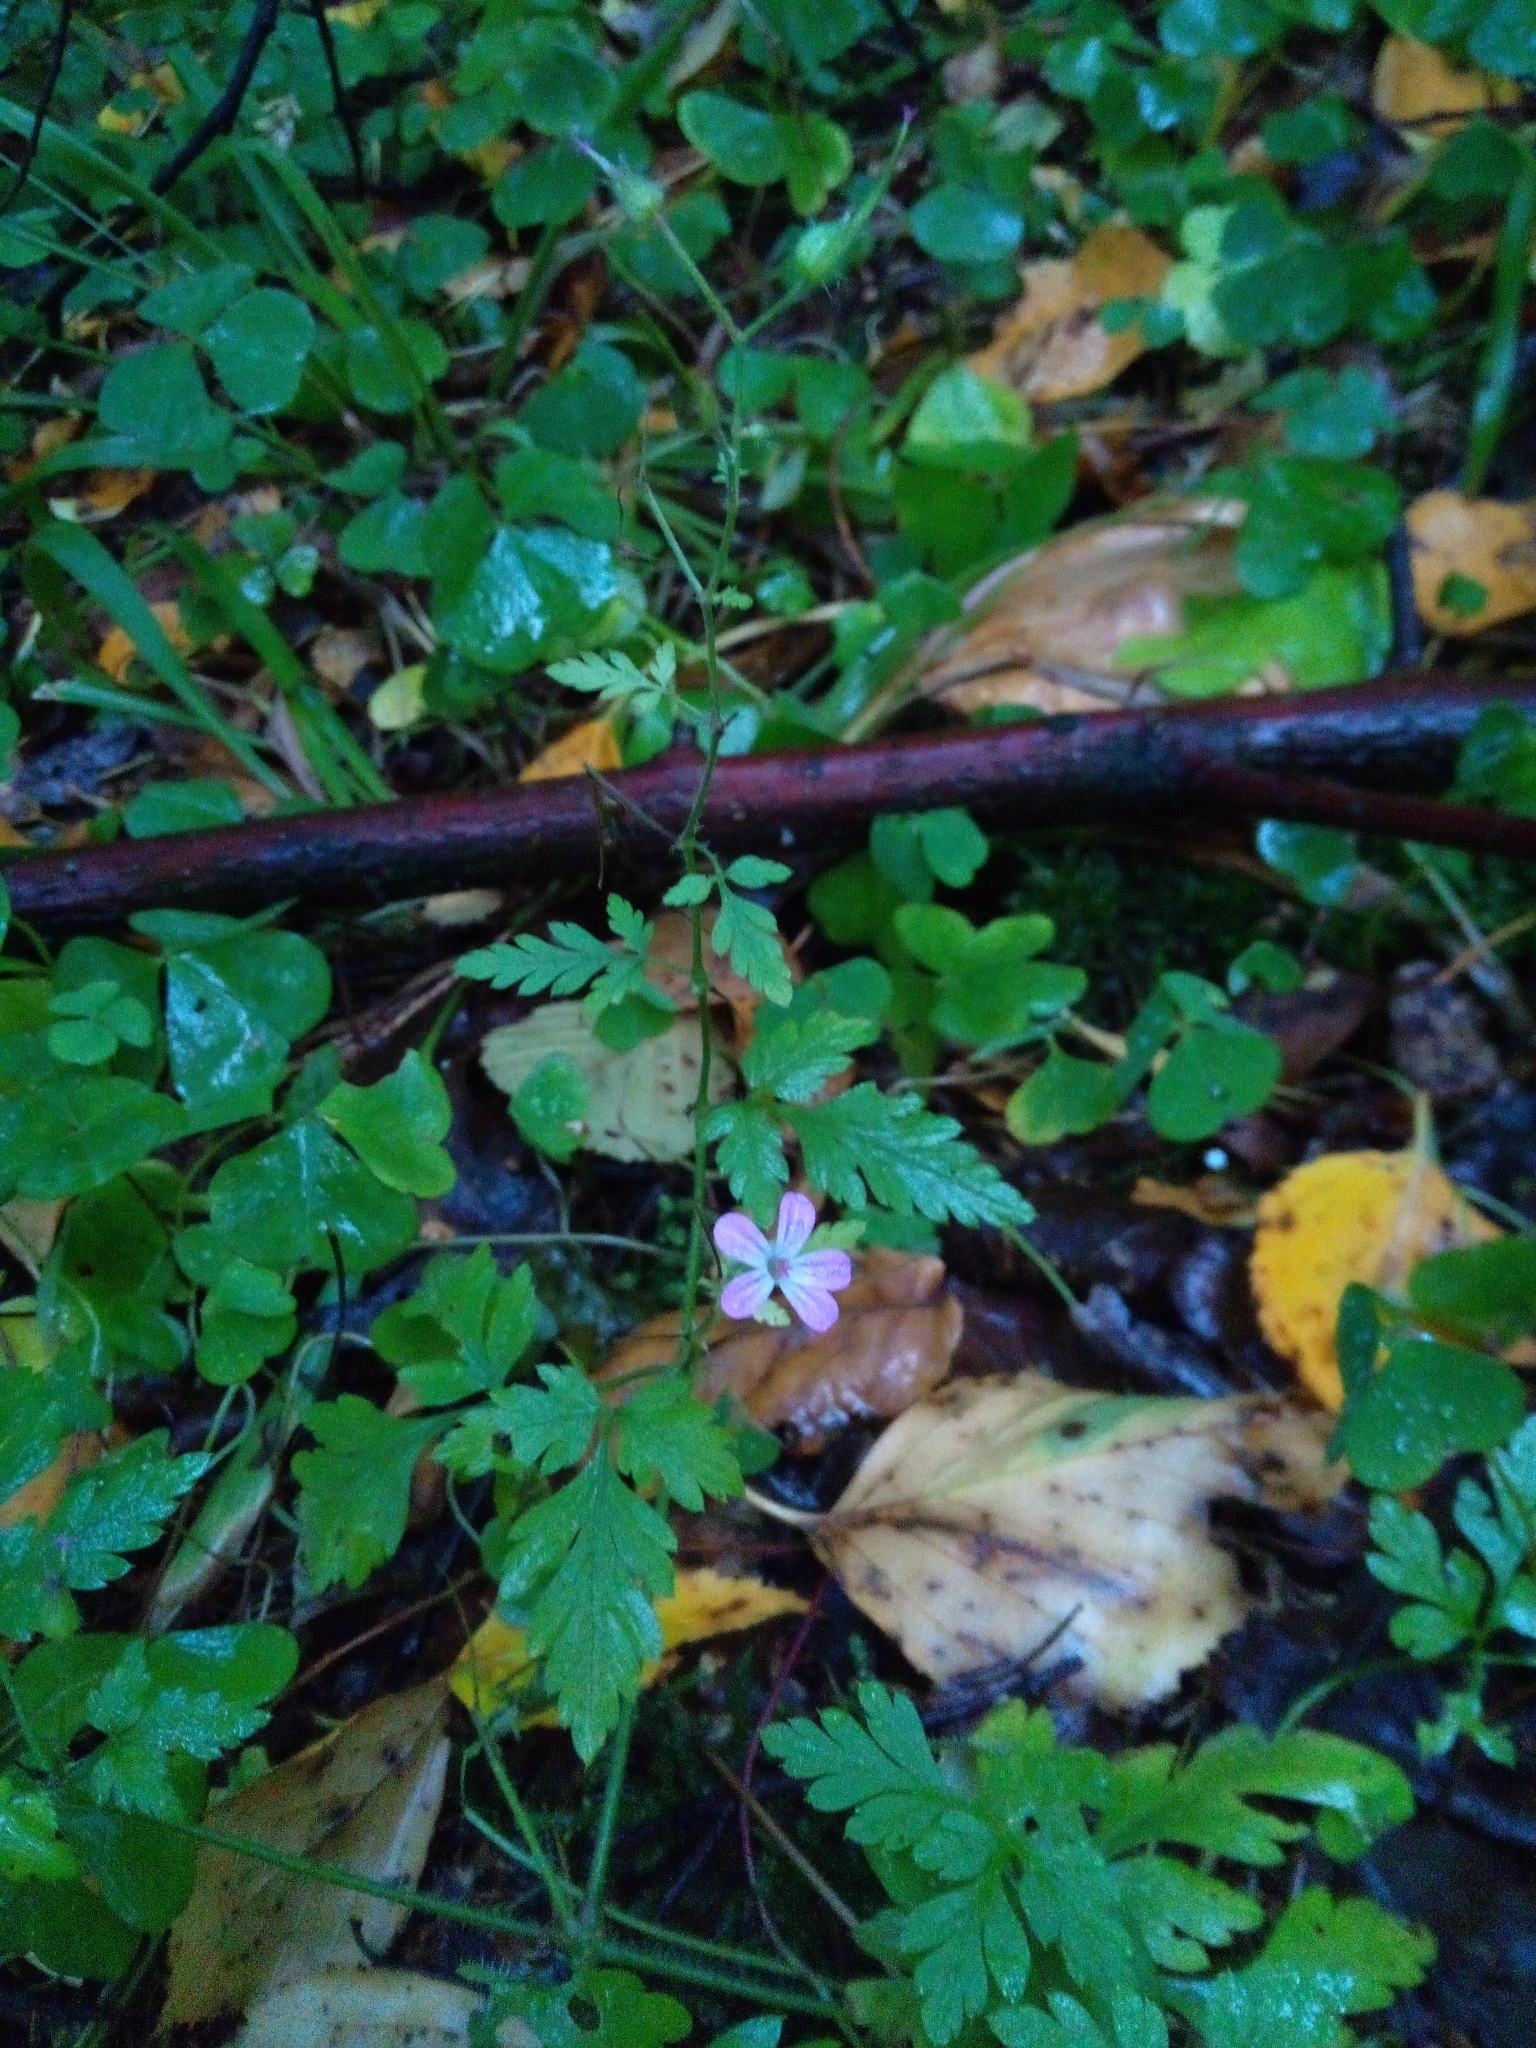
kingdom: Plantae
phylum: Tracheophyta
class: Magnoliopsida
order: Geraniales
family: Geraniaceae
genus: Geranium
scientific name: Geranium robertianum
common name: Herb-robert
